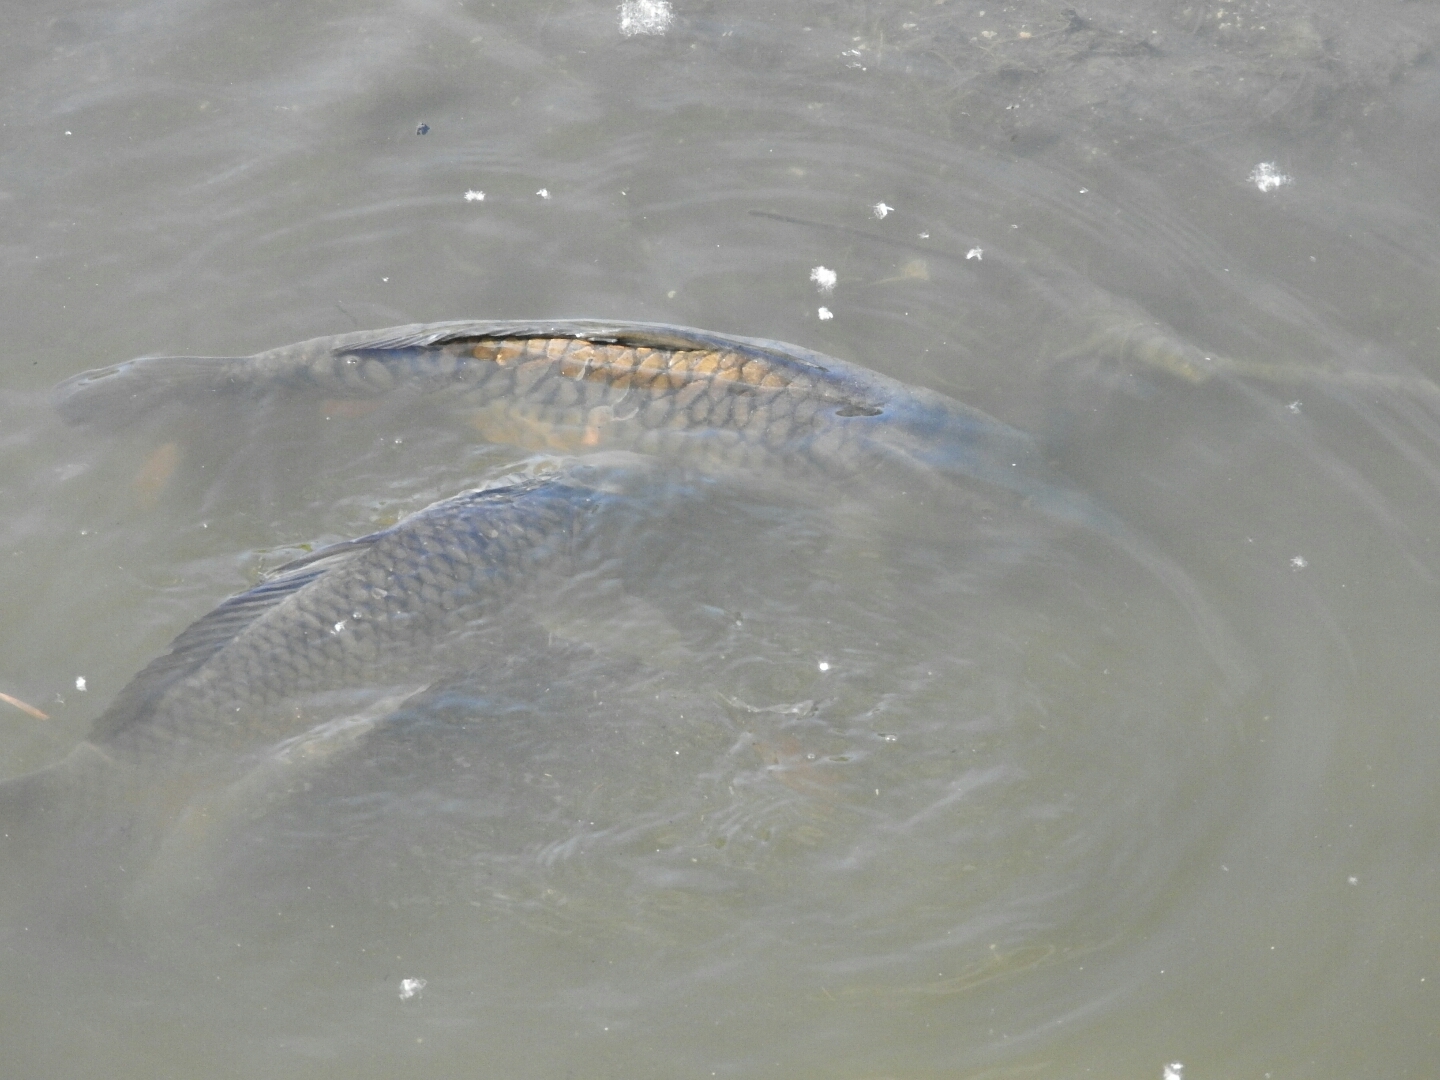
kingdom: Animalia
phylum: Chordata
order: Cypriniformes
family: Cyprinidae
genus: Cyprinus
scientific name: Cyprinus carpio
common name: Common carp
